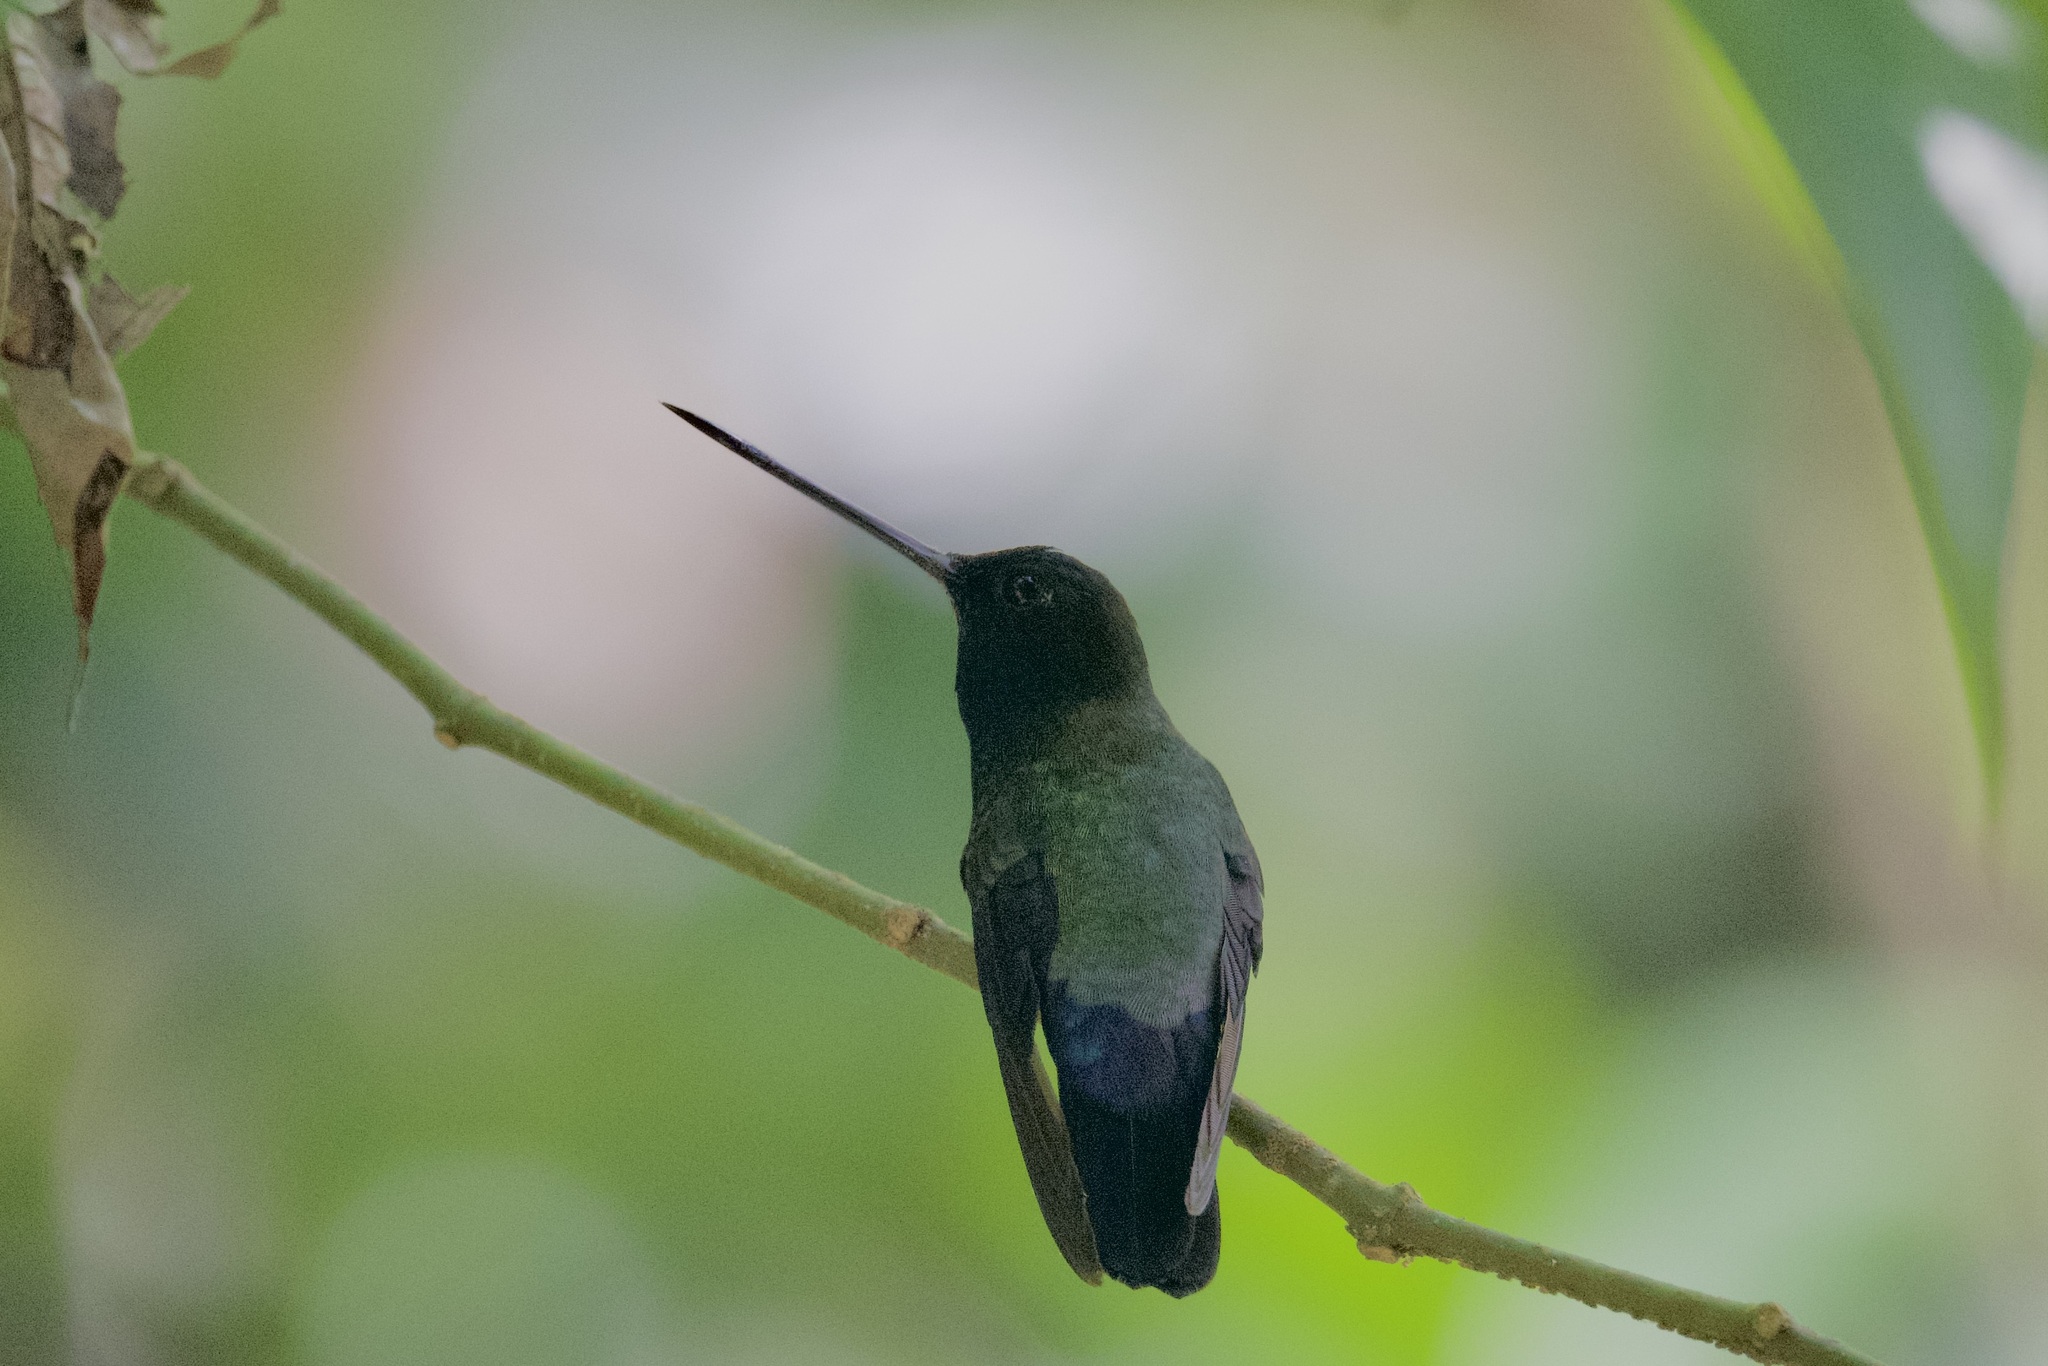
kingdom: Animalia
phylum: Chordata
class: Aves
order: Apodiformes
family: Trochilidae
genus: Doryfera
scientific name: Doryfera johannae
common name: Blue-fronted lancebill
